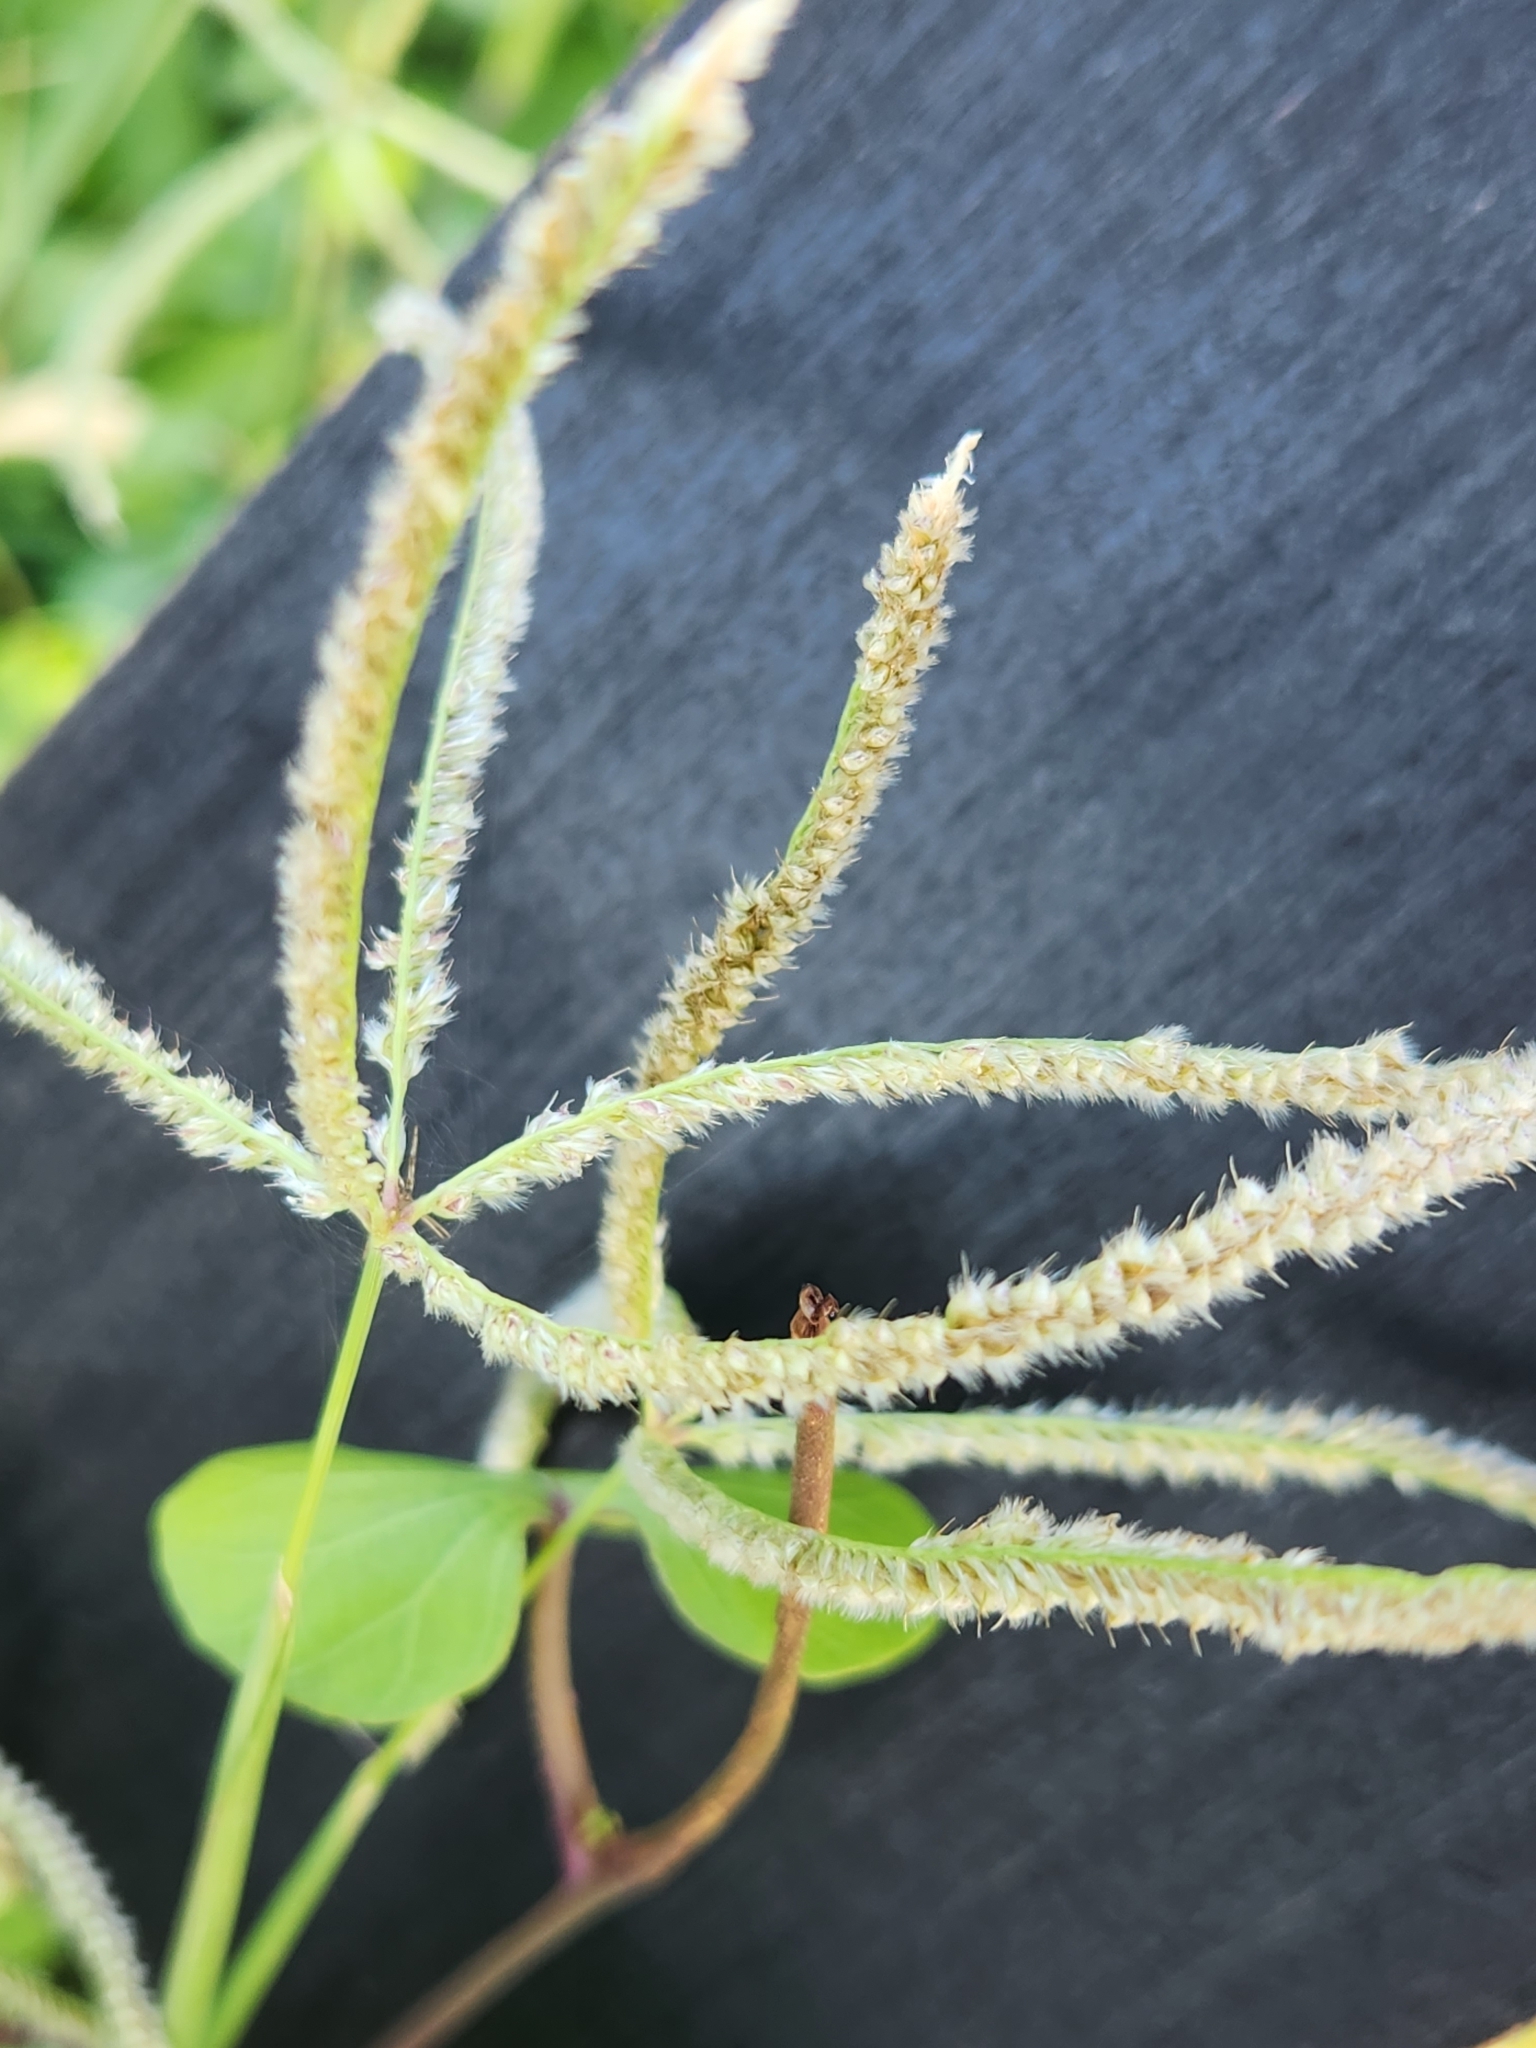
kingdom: Plantae
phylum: Tracheophyta
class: Liliopsida
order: Poales
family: Poaceae
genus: Stapfochloa
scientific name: Stapfochloa ciliata
